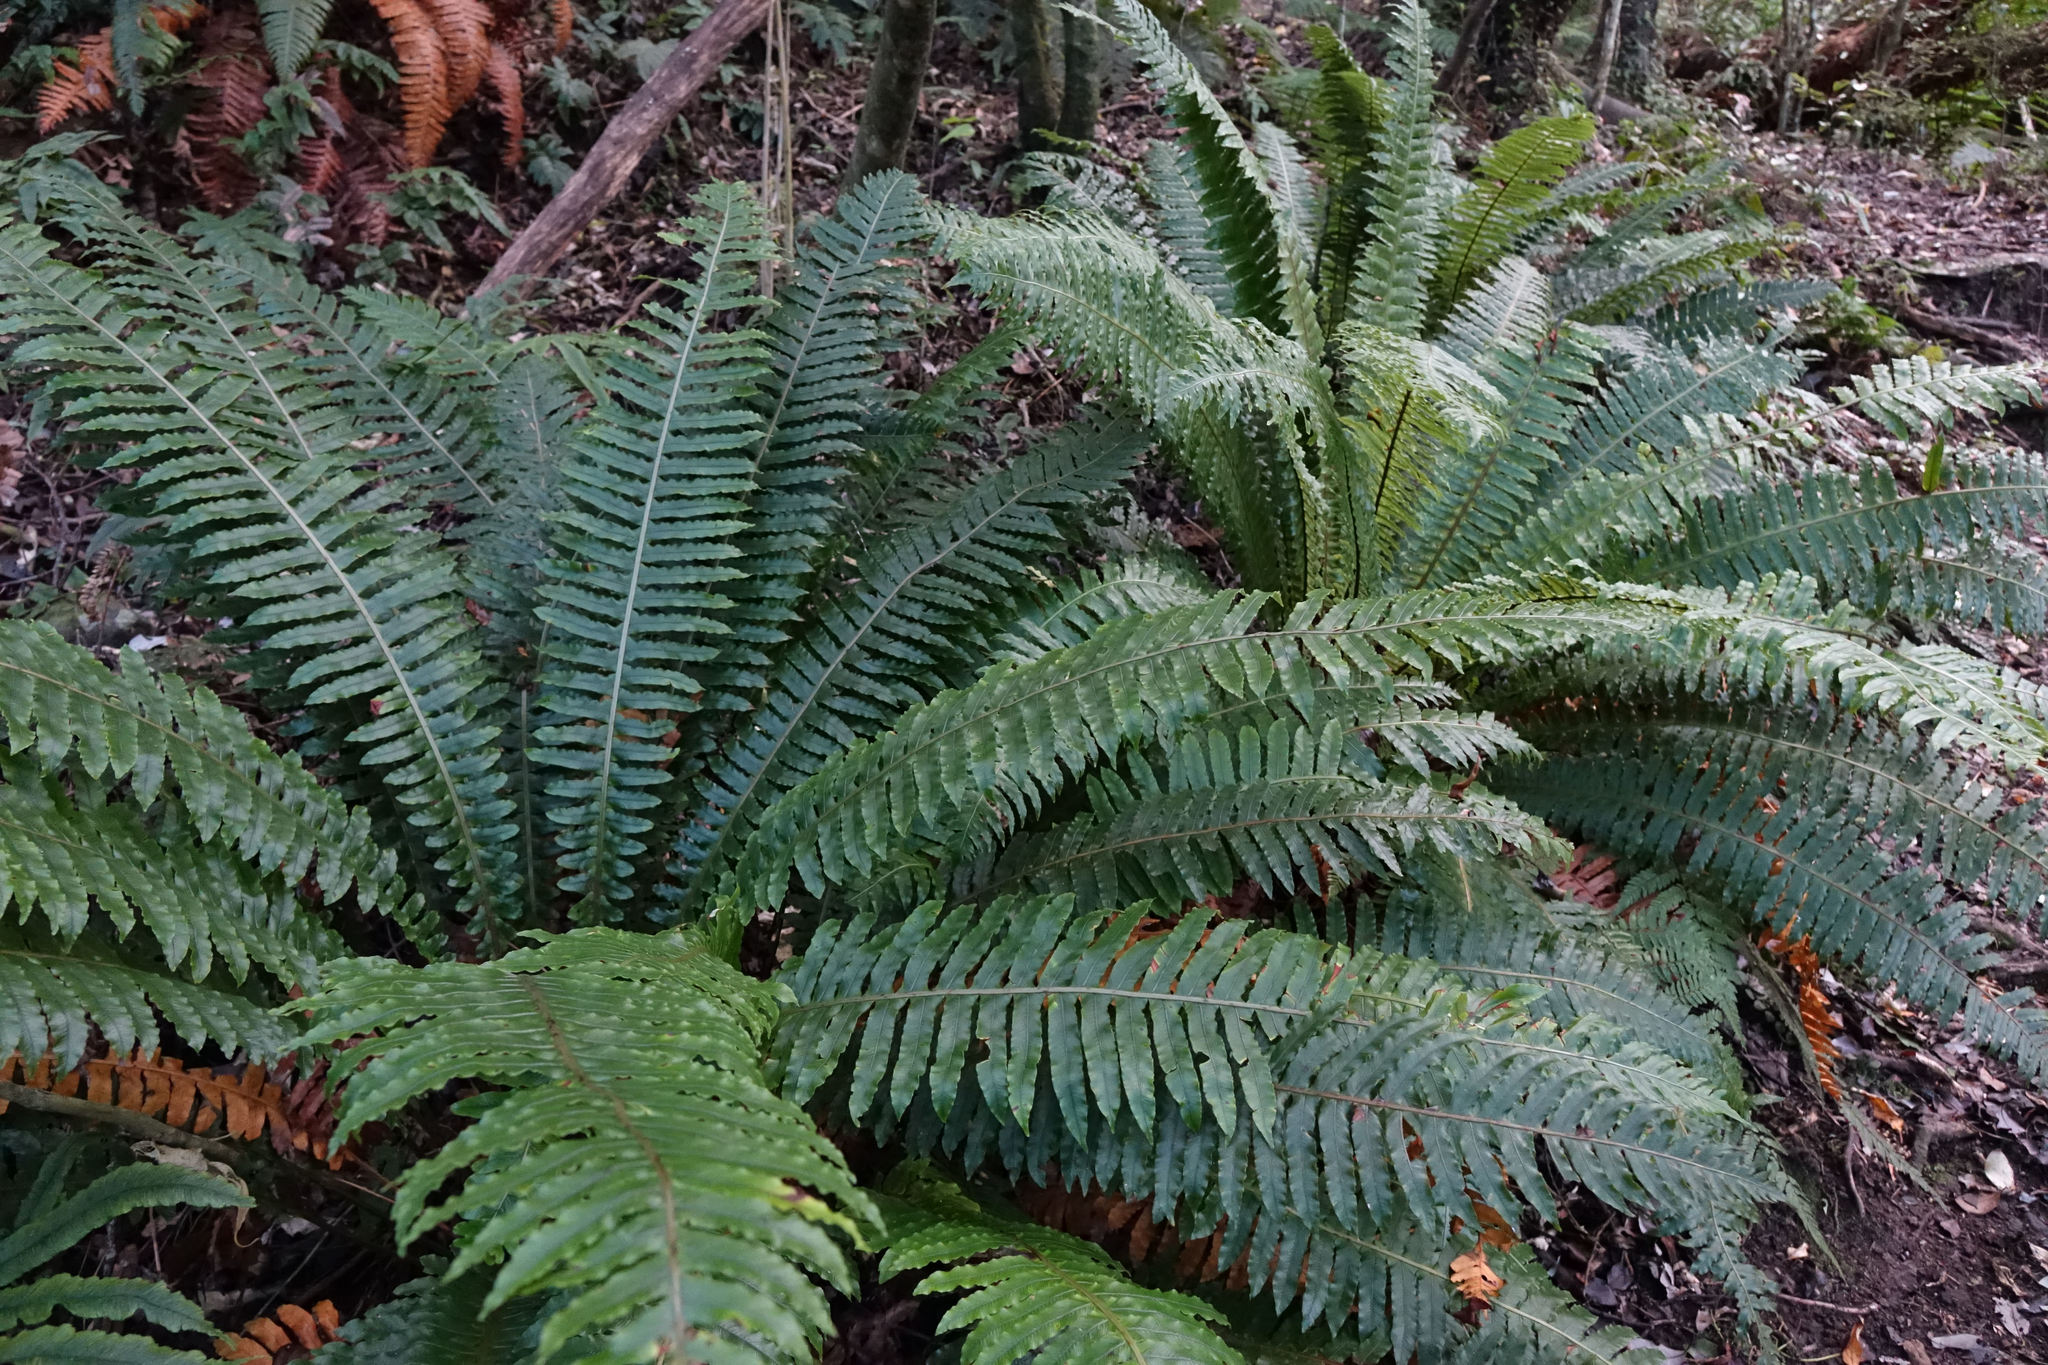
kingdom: Plantae
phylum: Tracheophyta
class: Polypodiopsida
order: Polypodiales
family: Blechnaceae
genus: Lomaria
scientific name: Lomaria discolor
